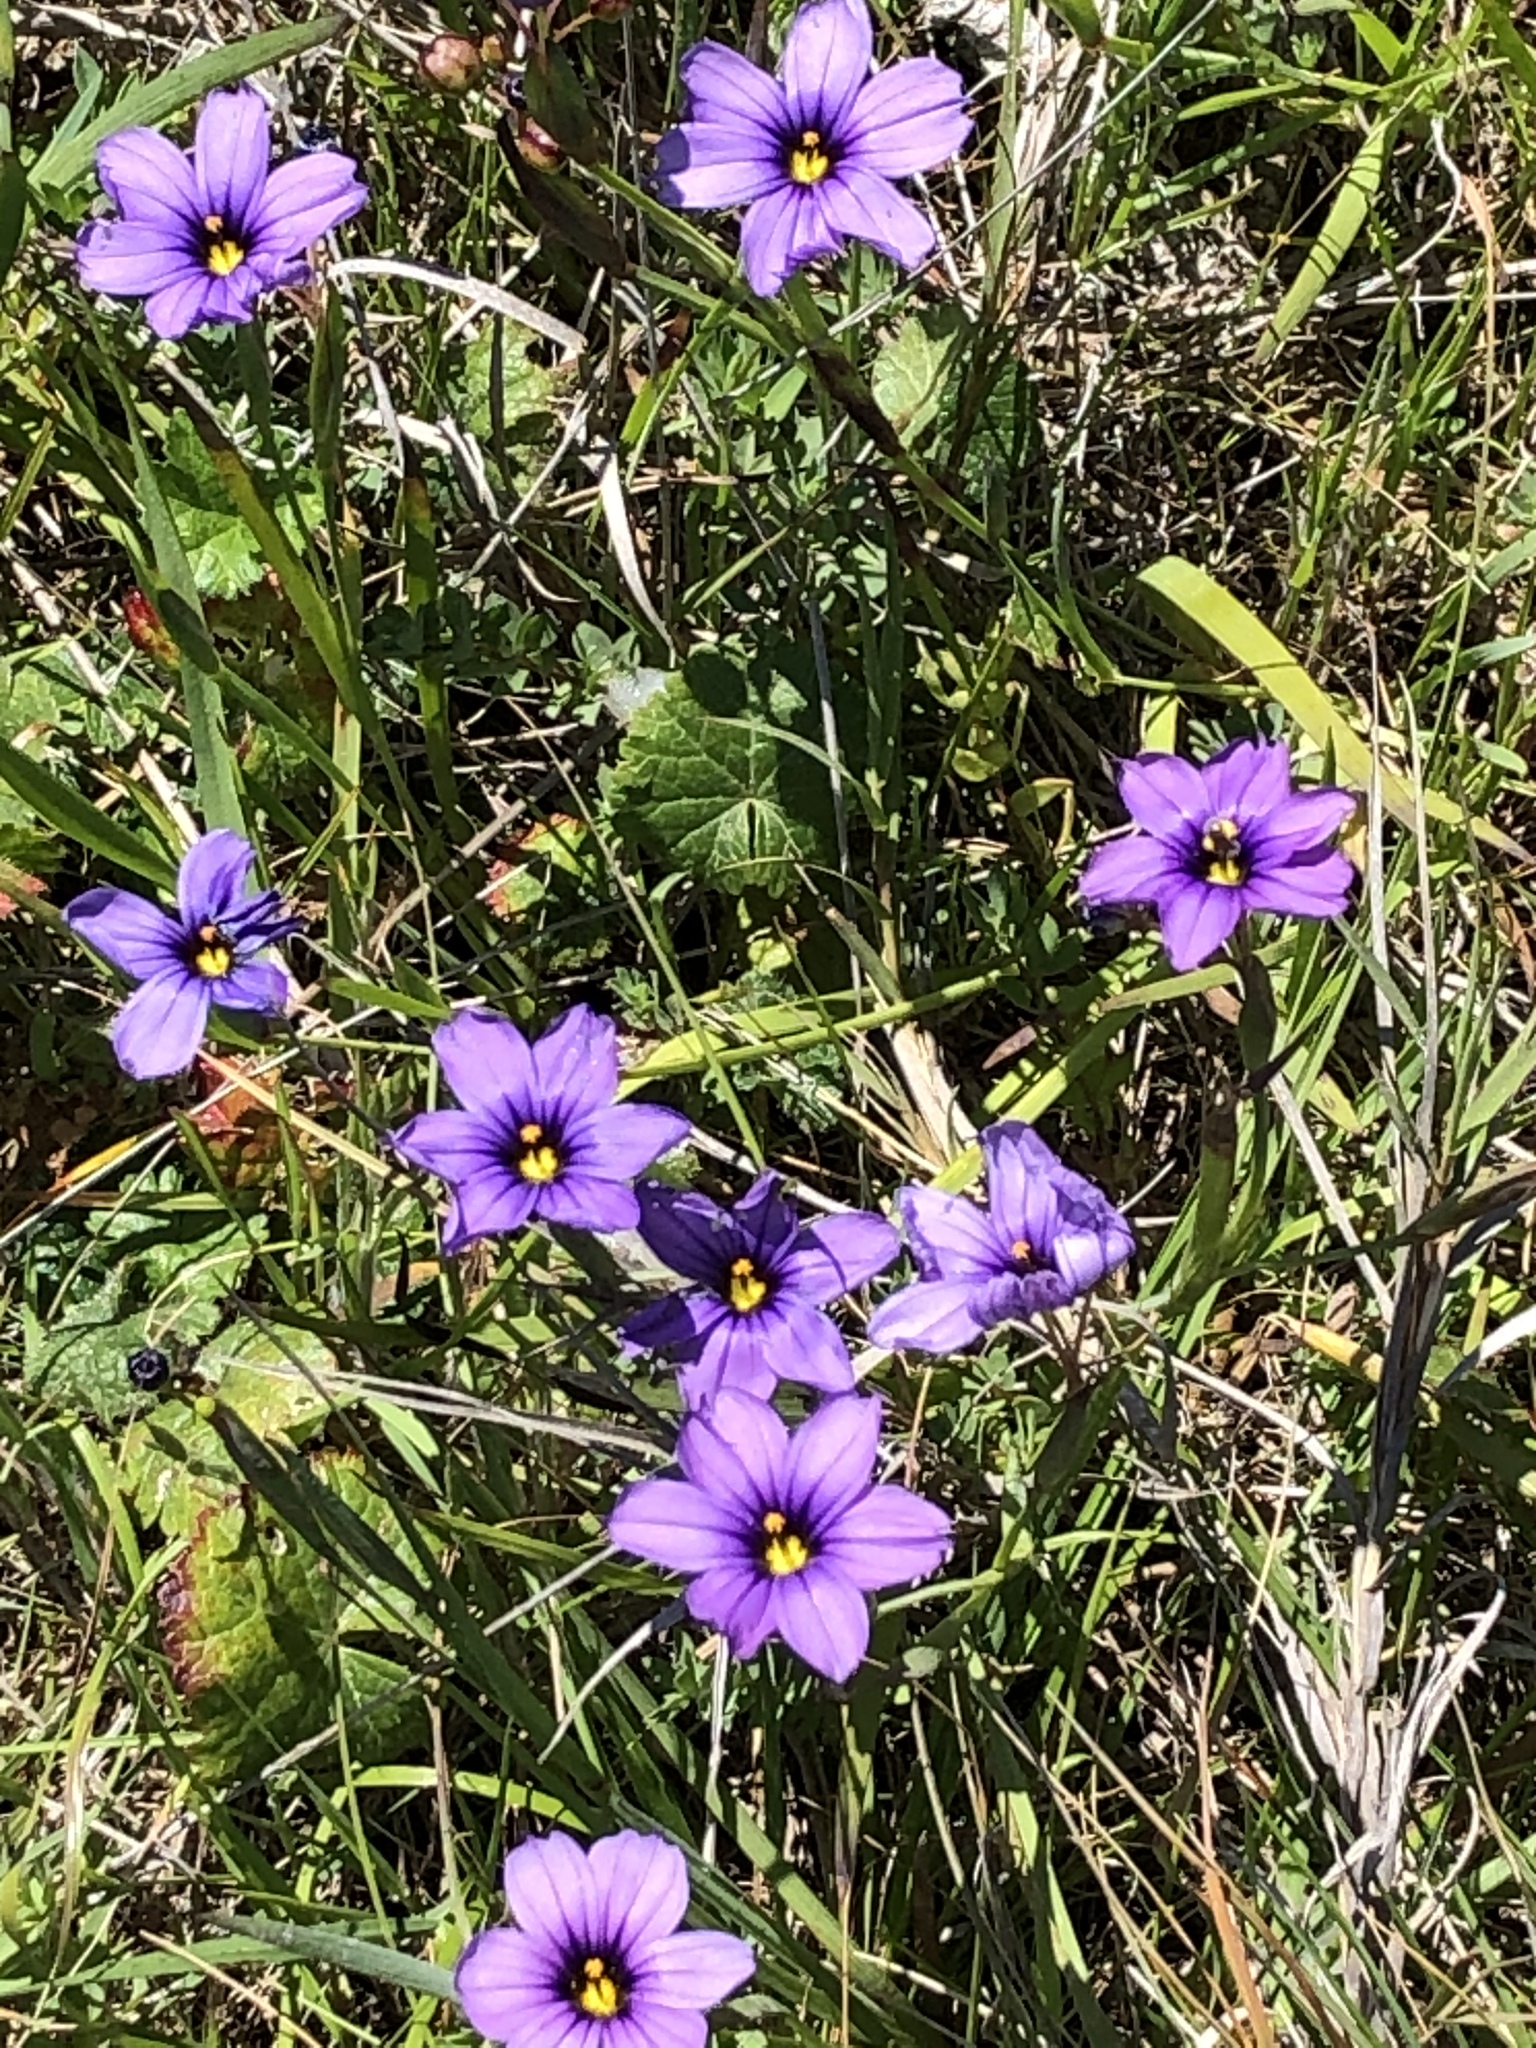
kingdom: Plantae
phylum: Tracheophyta
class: Liliopsida
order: Asparagales
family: Iridaceae
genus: Sisyrinchium
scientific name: Sisyrinchium bellum
